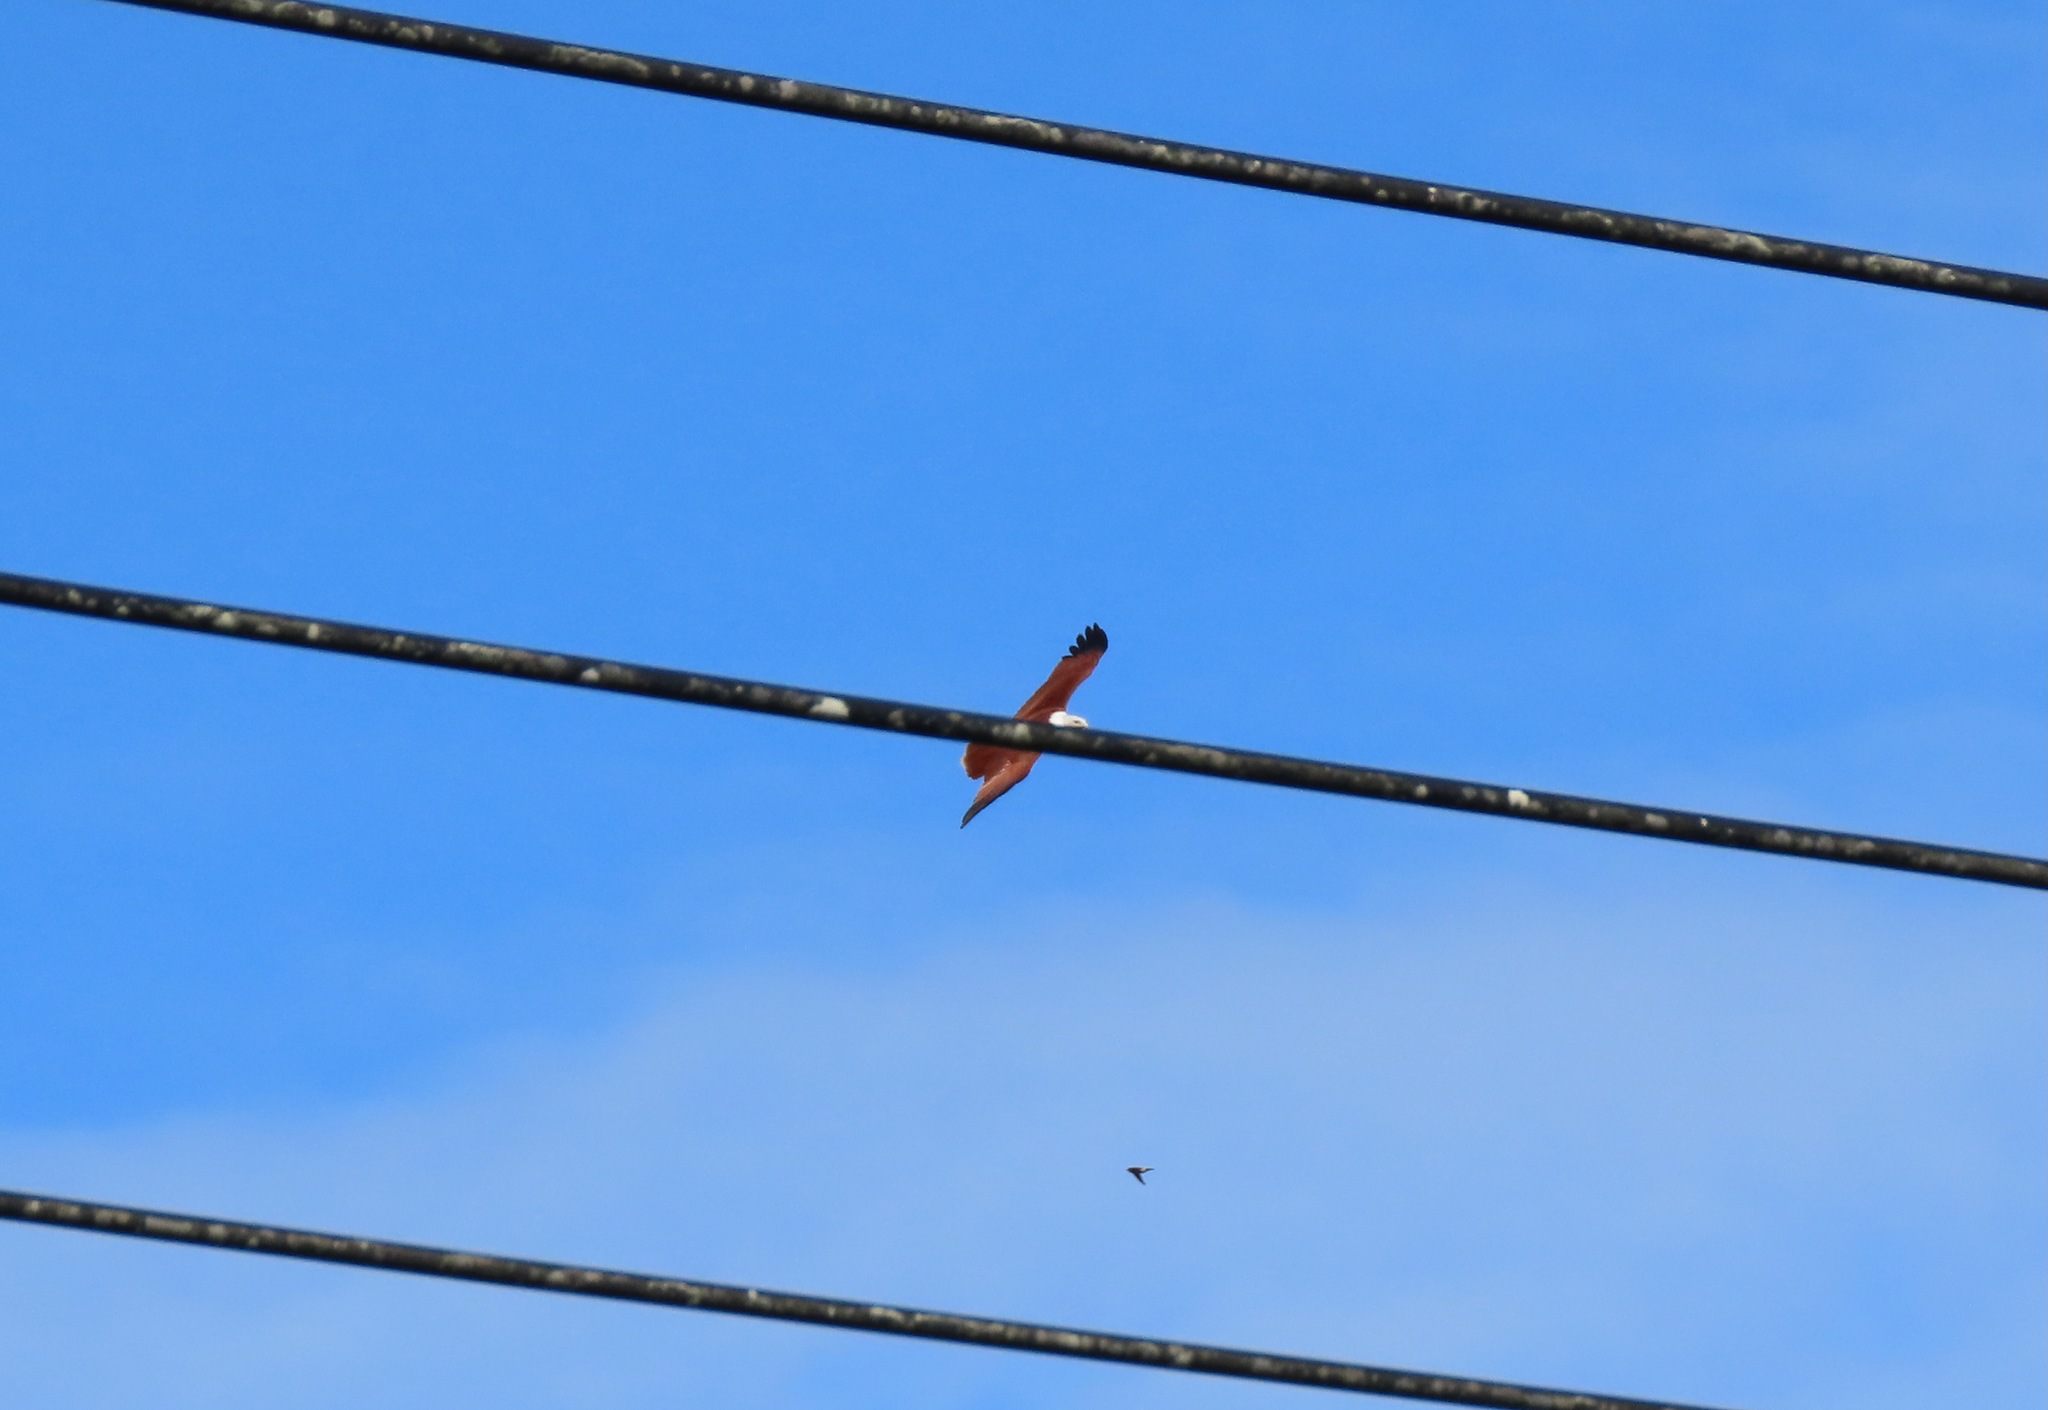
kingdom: Animalia
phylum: Chordata
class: Aves
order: Accipitriformes
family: Accipitridae
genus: Haliastur
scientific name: Haliastur indus
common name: Brahminy kite
